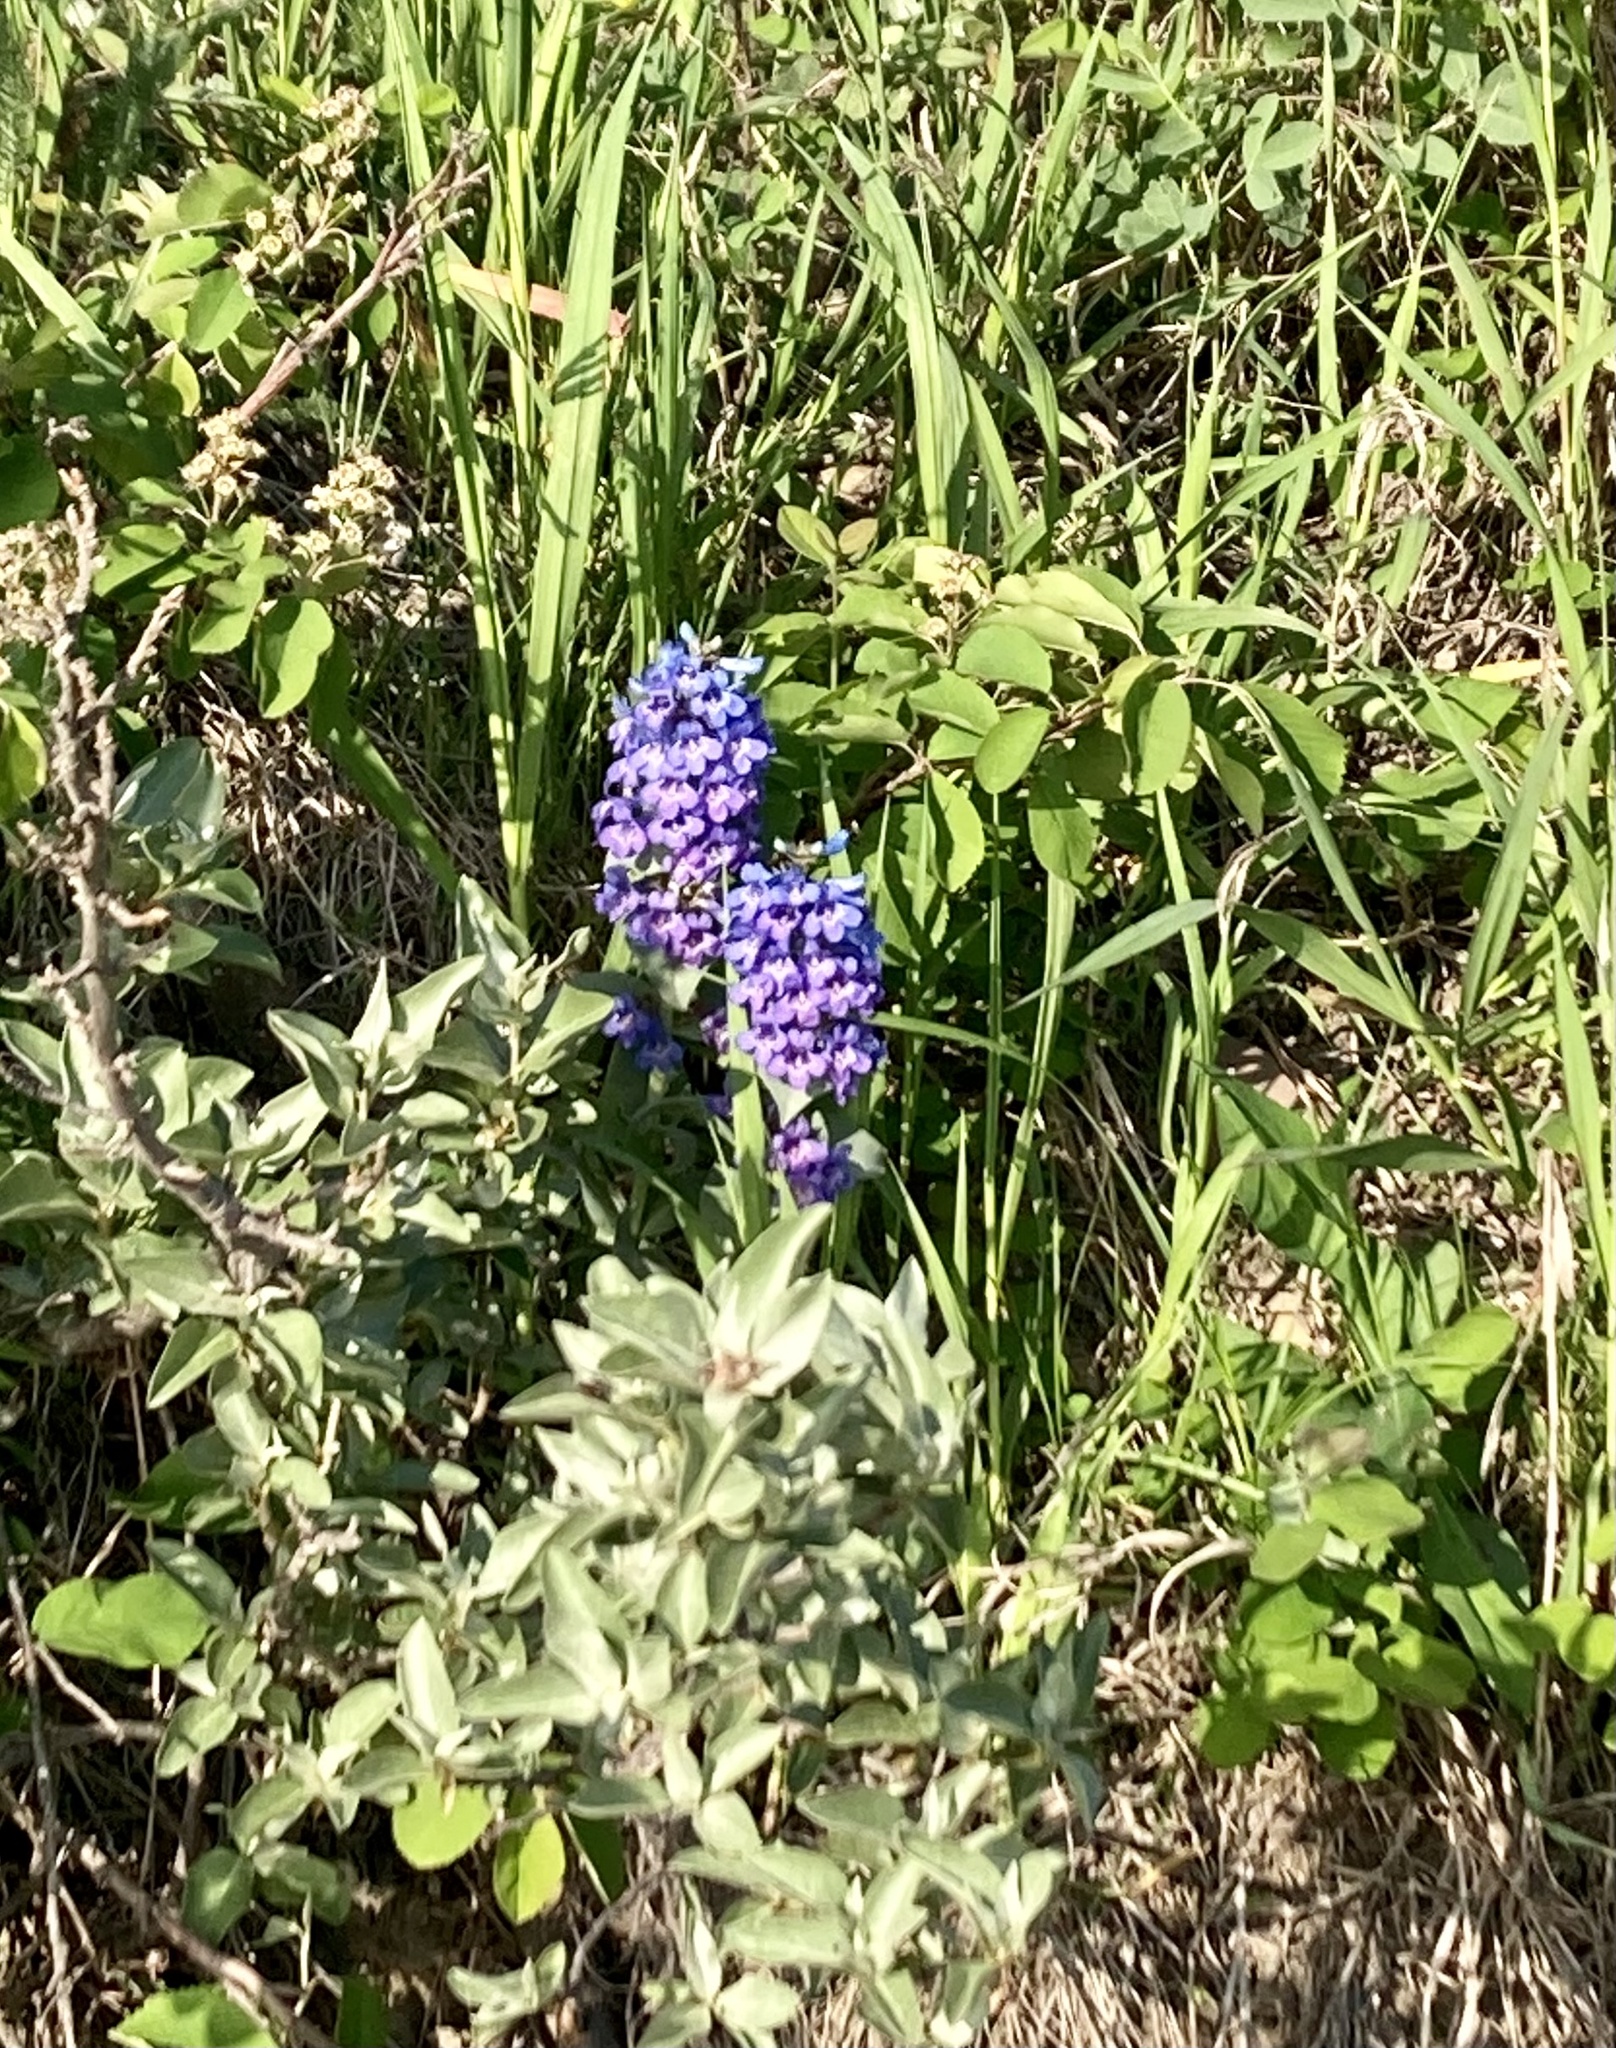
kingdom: Plantae
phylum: Tracheophyta
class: Magnoliopsida
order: Lamiales
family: Plantaginaceae
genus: Penstemon
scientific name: Penstemon nitidus
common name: Shining penstemon
